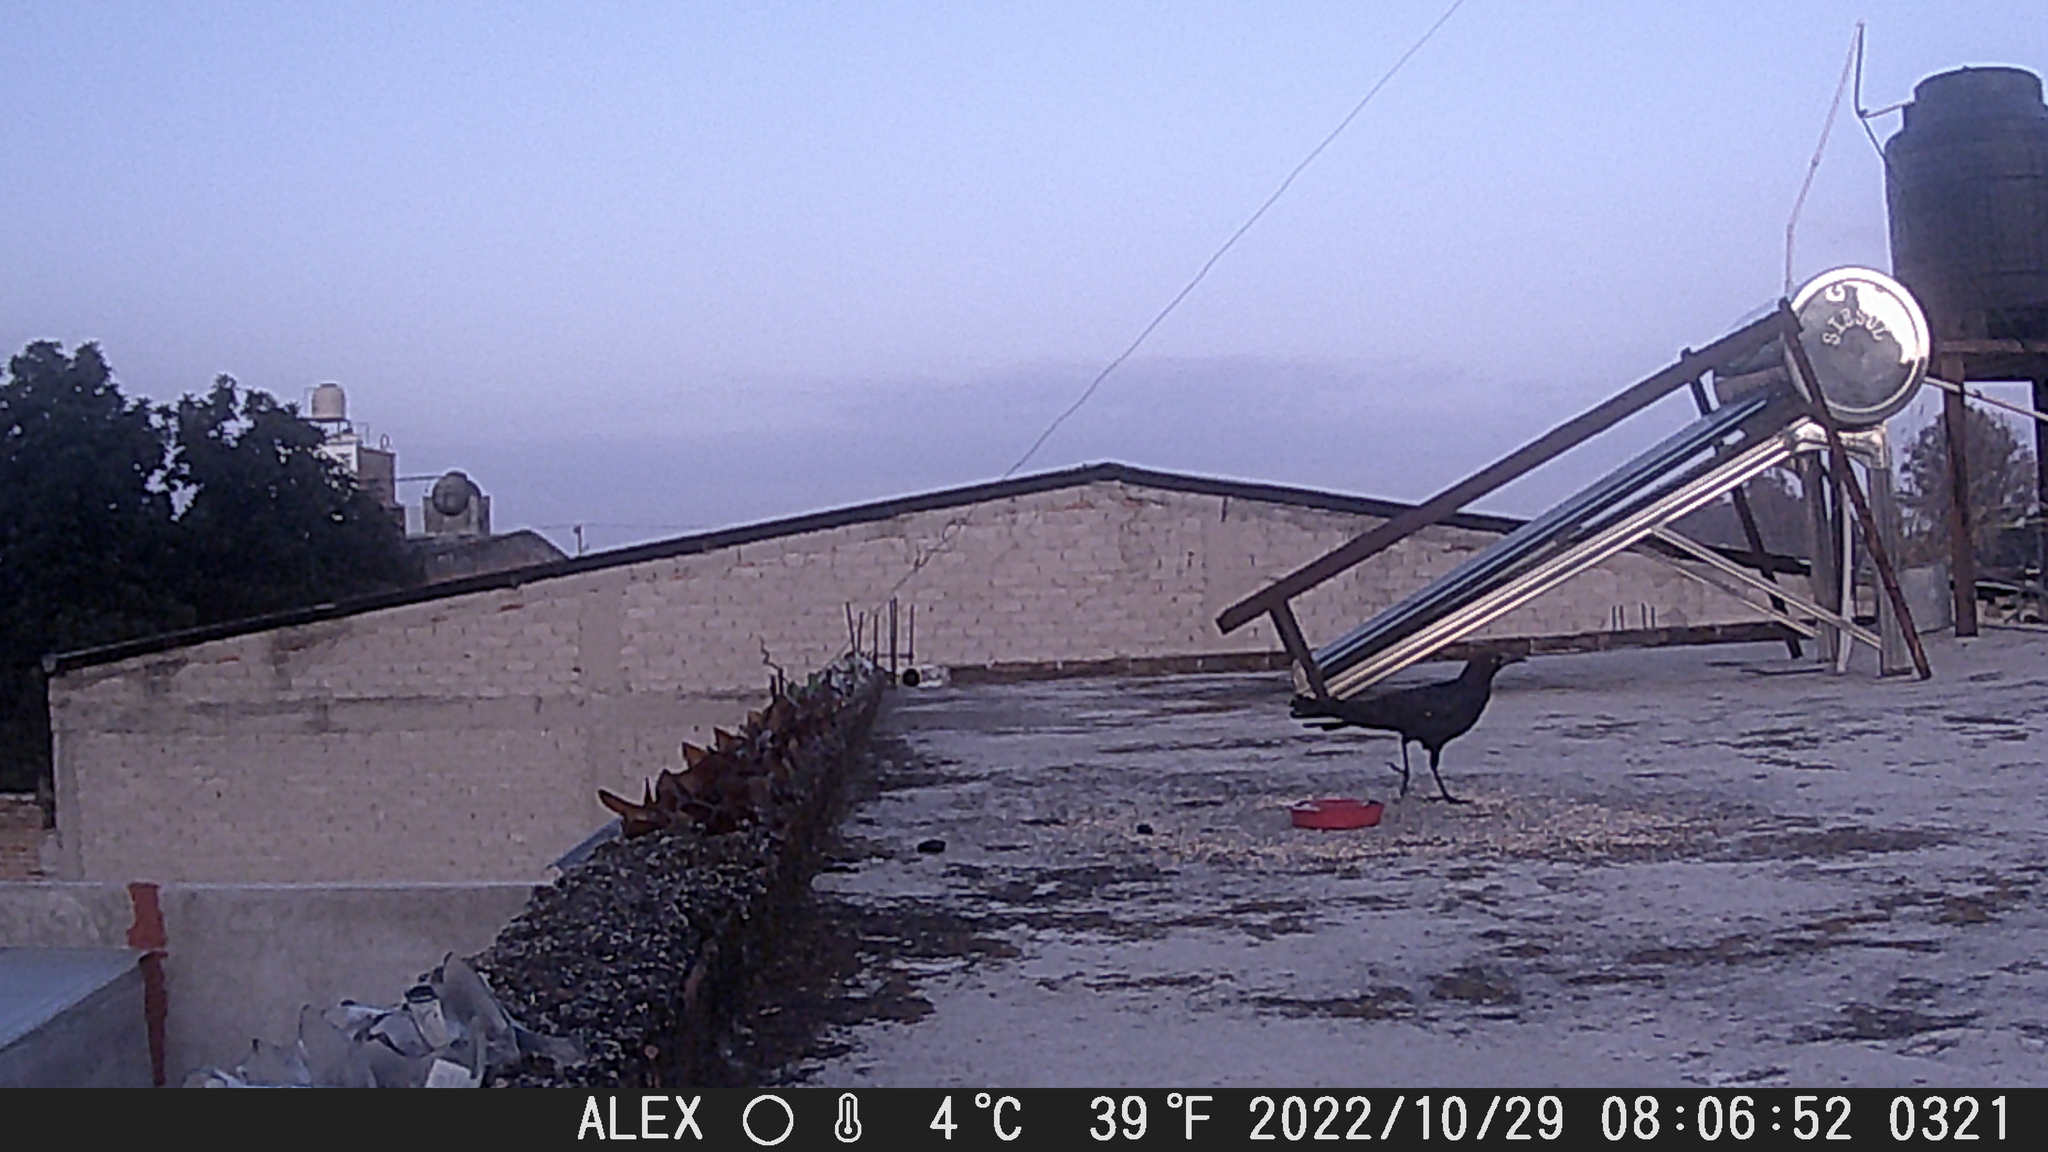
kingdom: Animalia
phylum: Chordata
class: Aves
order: Passeriformes
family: Icteridae
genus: Quiscalus
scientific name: Quiscalus mexicanus
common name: Great-tailed grackle
